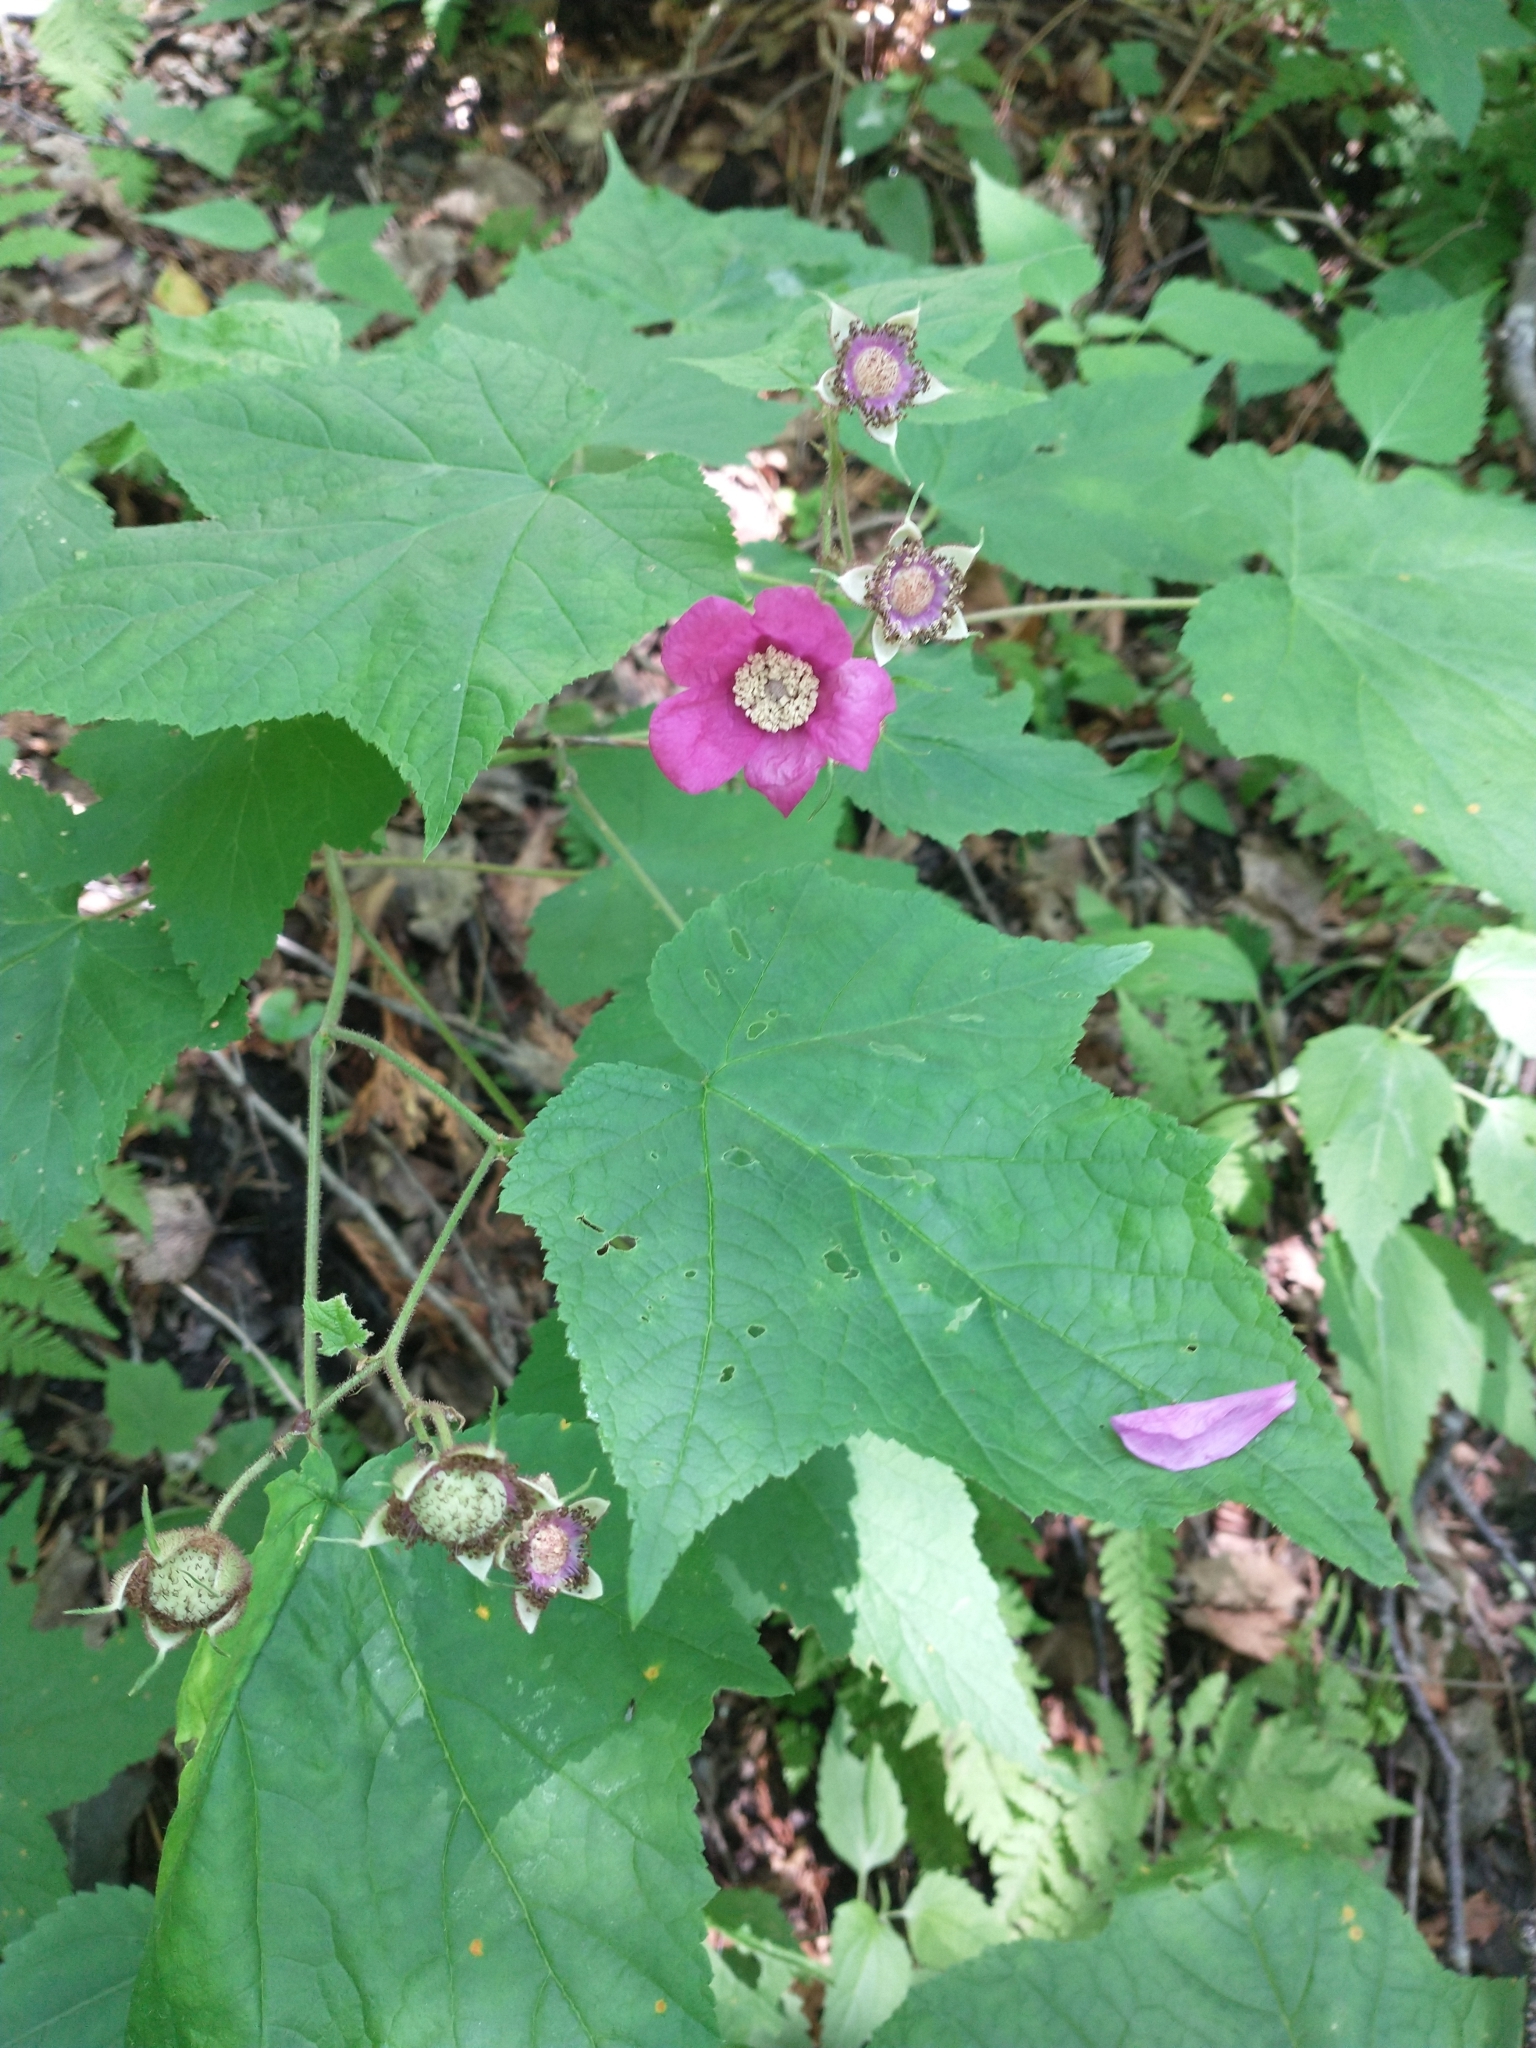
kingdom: Plantae
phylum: Tracheophyta
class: Magnoliopsida
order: Rosales
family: Rosaceae
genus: Rubus
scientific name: Rubus odoratus
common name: Purple-flowered raspberry
